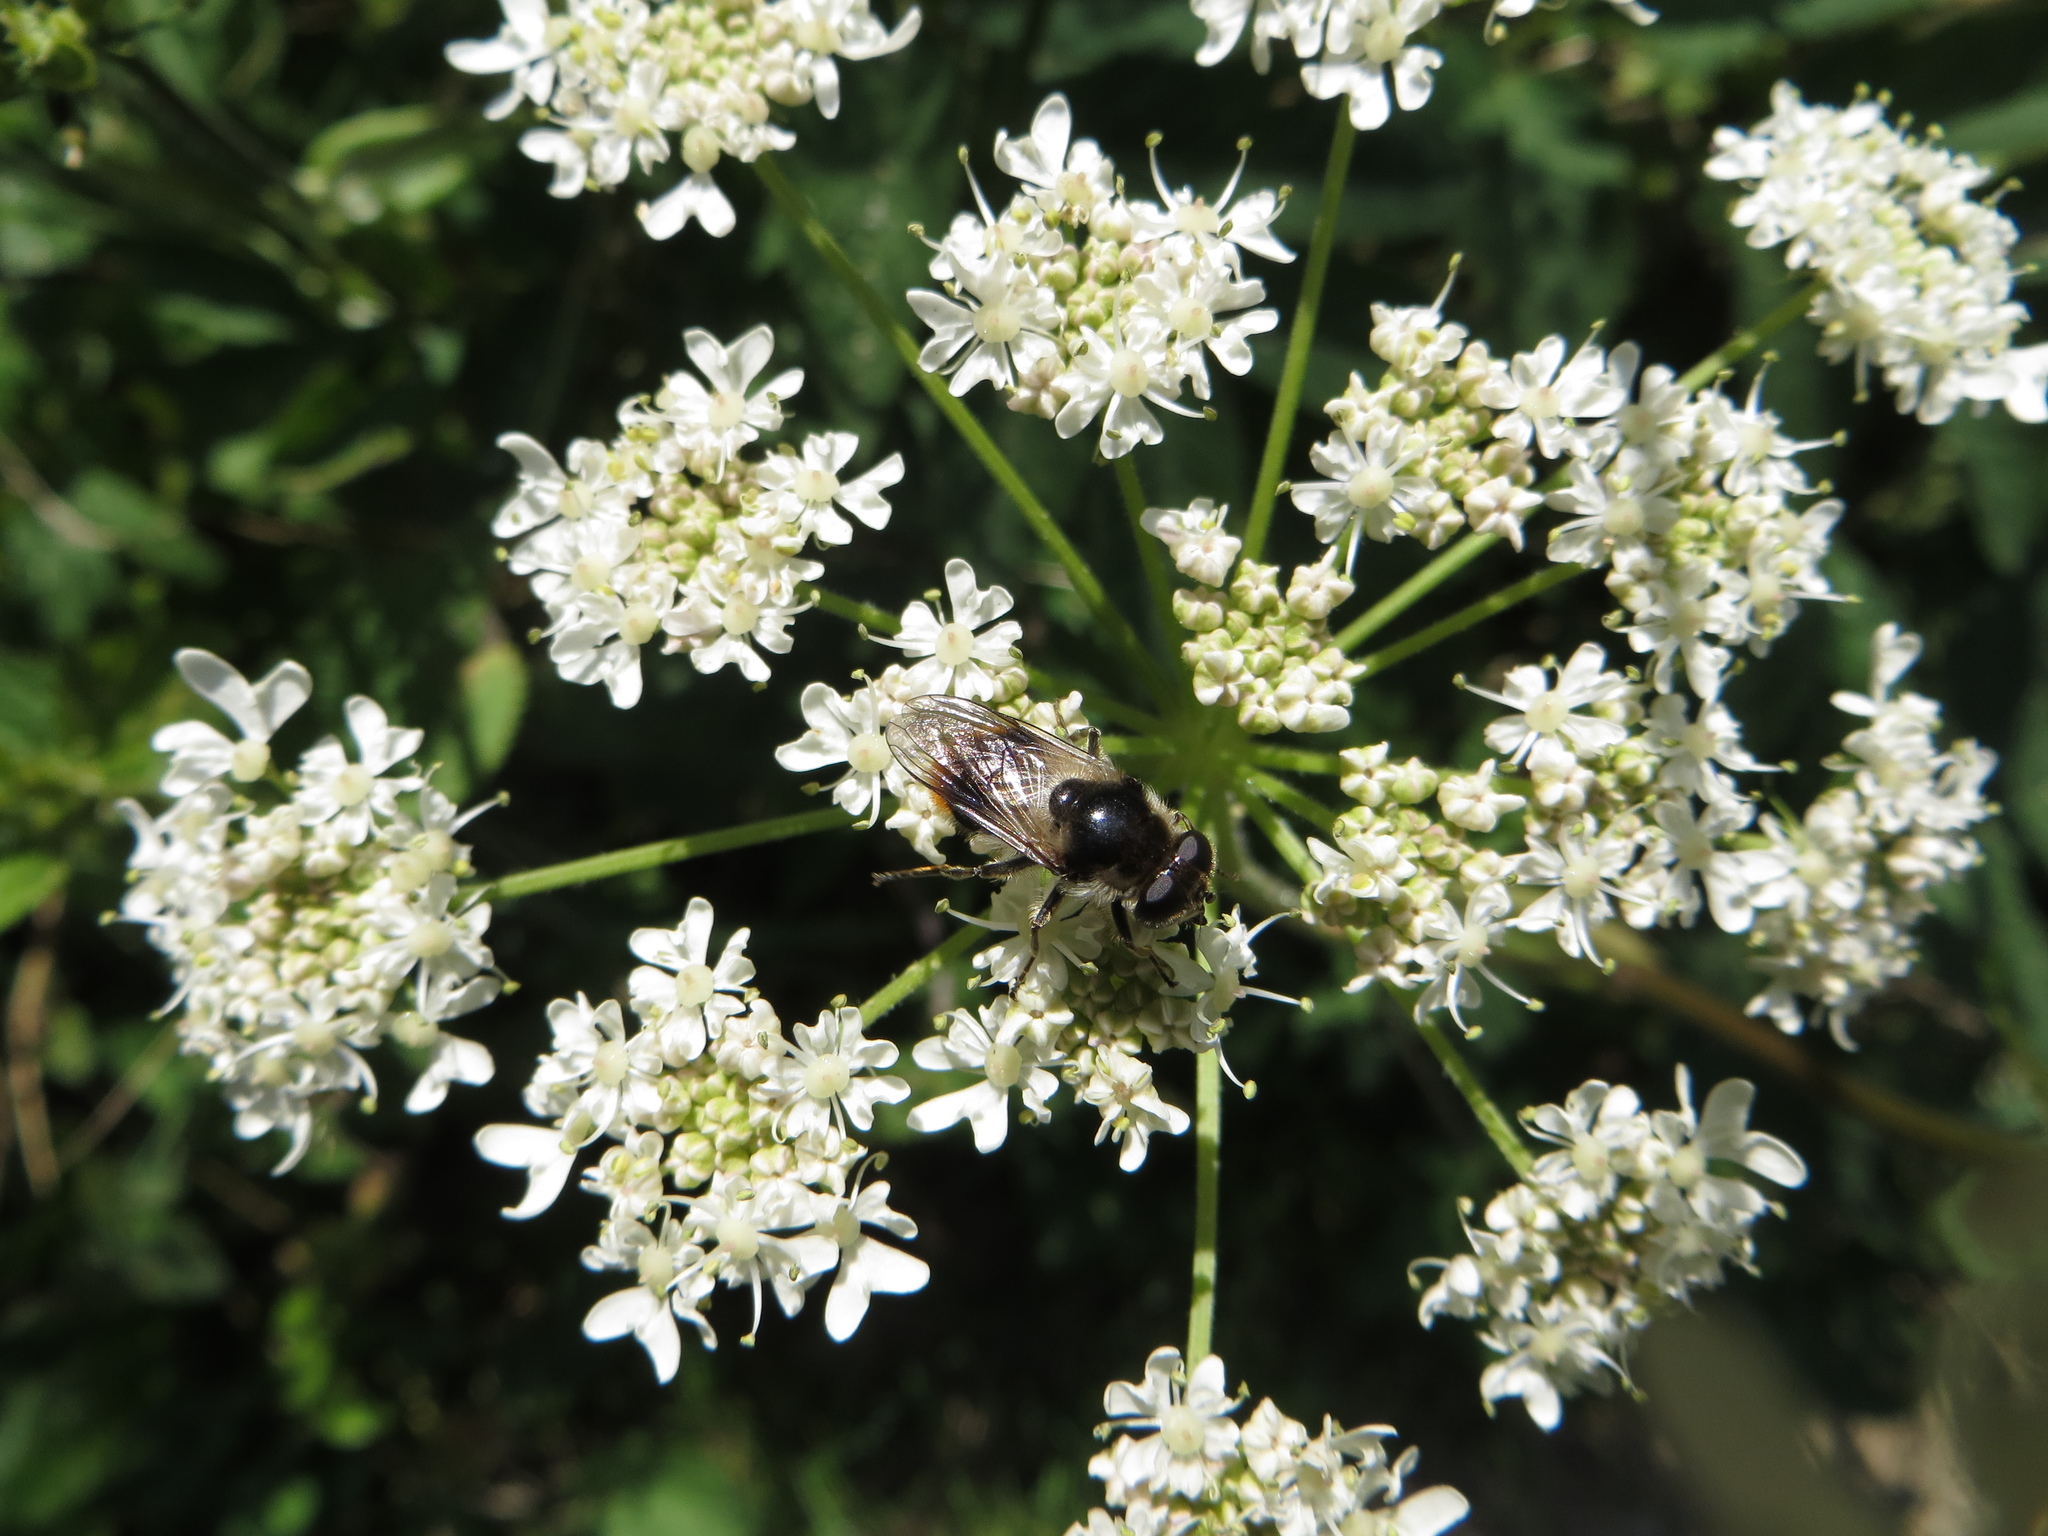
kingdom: Animalia
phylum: Arthropoda
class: Insecta
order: Diptera
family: Syrphidae
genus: Cheilosia
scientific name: Cheilosia illustrata
